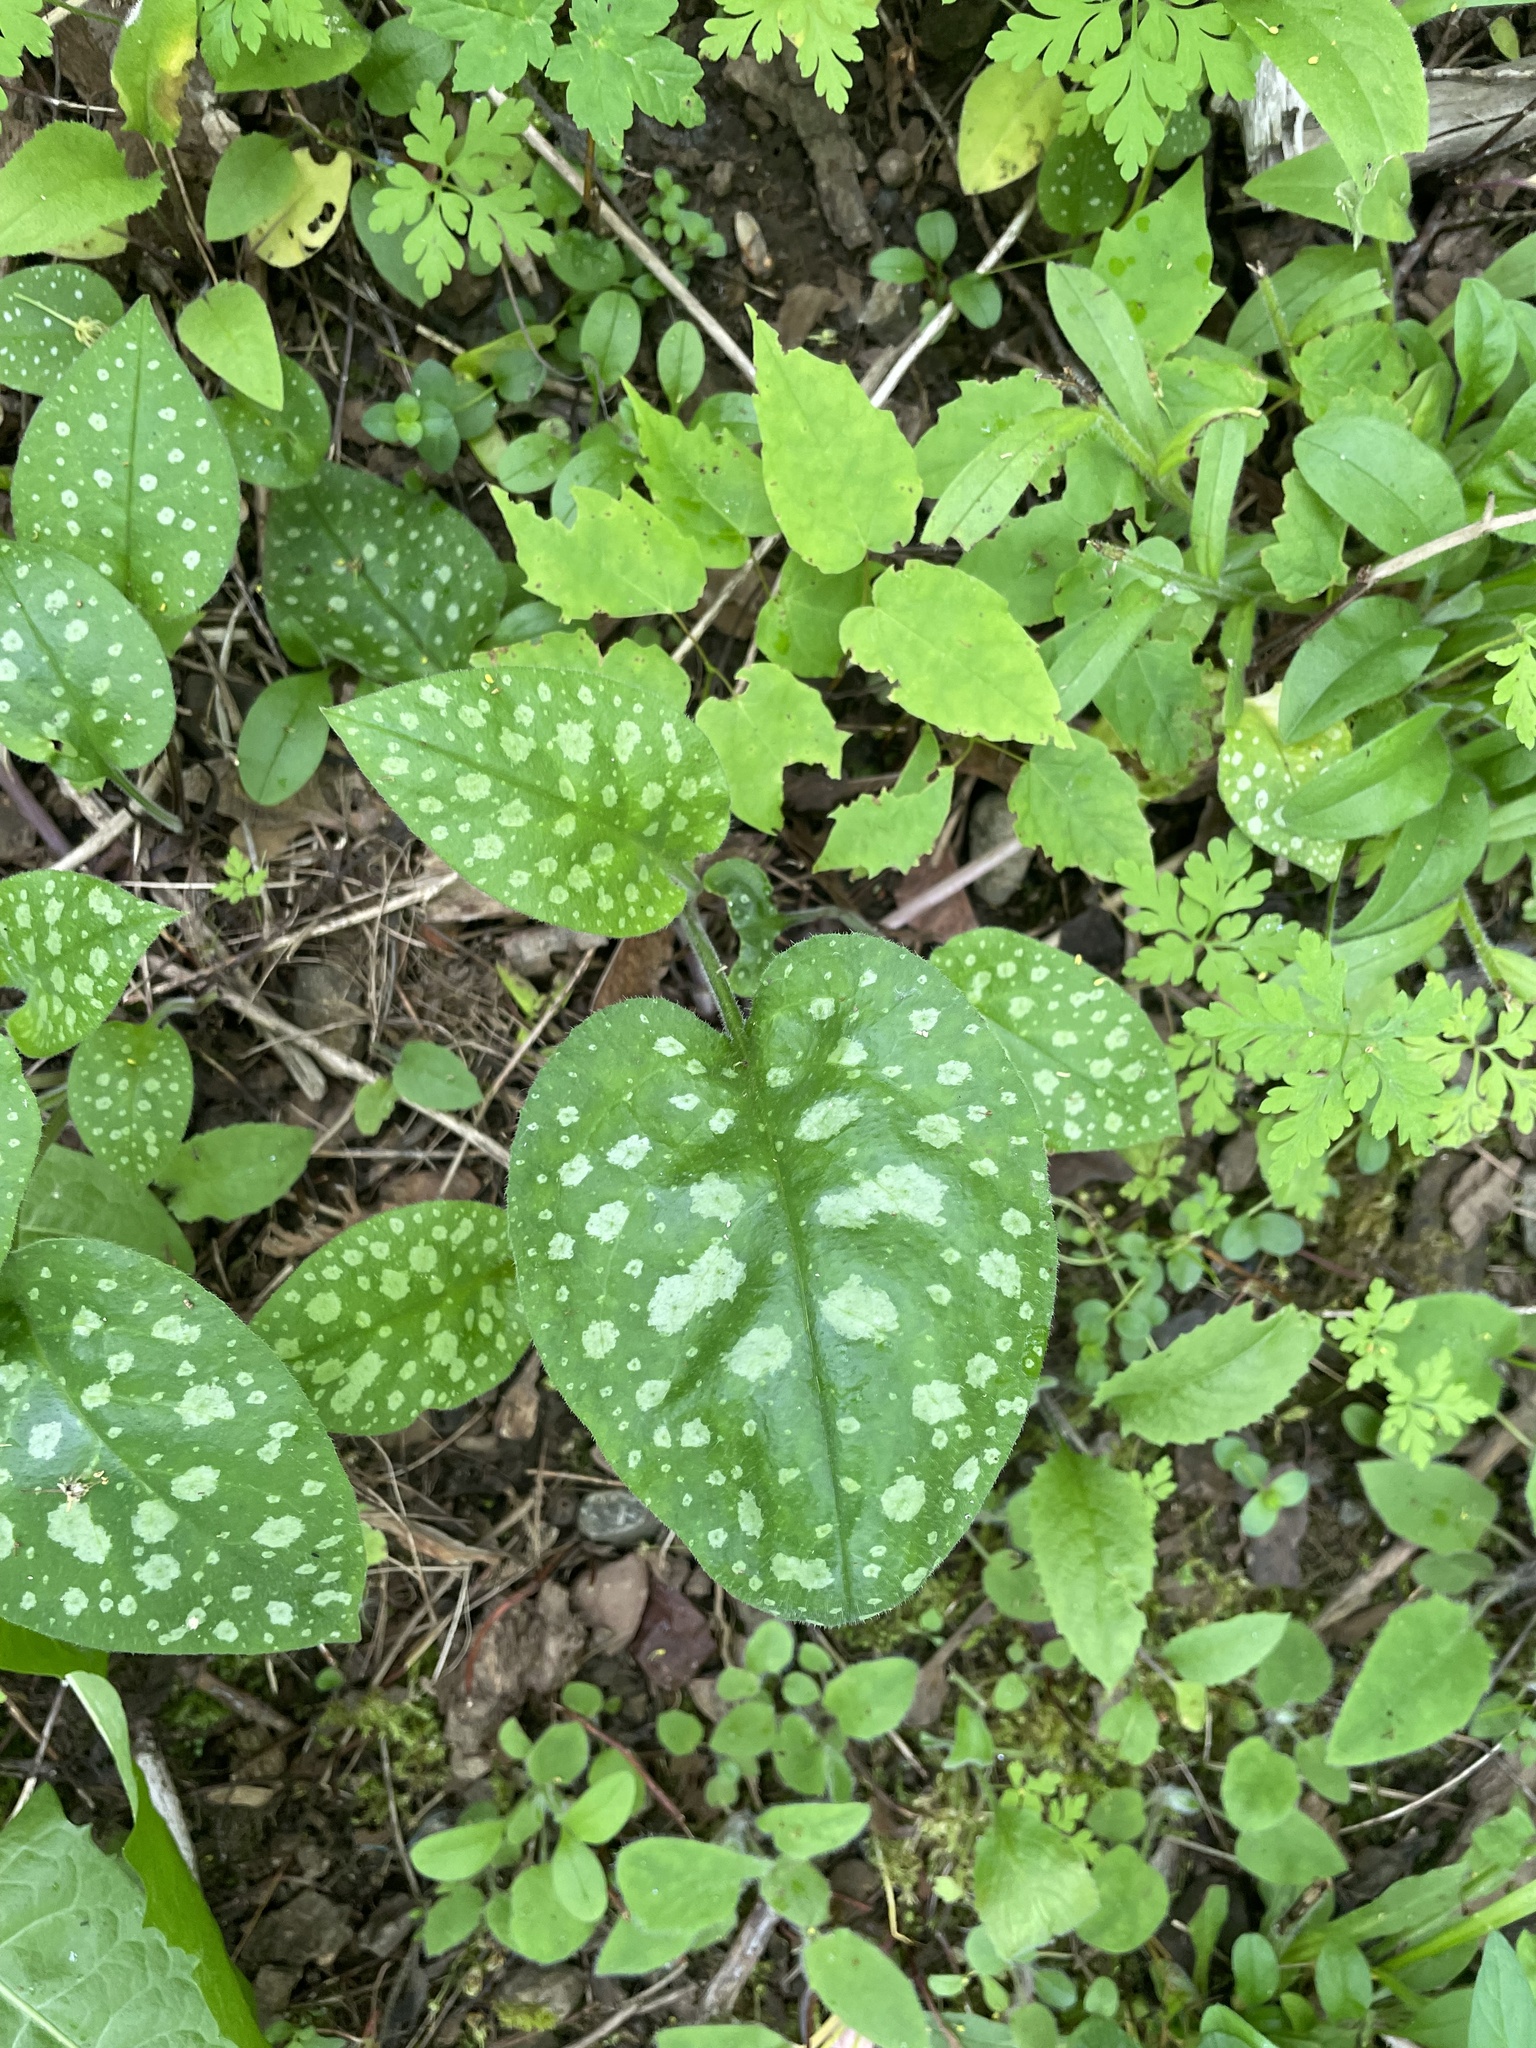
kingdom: Plantae
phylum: Tracheophyta
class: Magnoliopsida
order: Boraginales
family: Boraginaceae
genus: Pulmonaria
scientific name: Pulmonaria officinalis
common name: Lungwort
